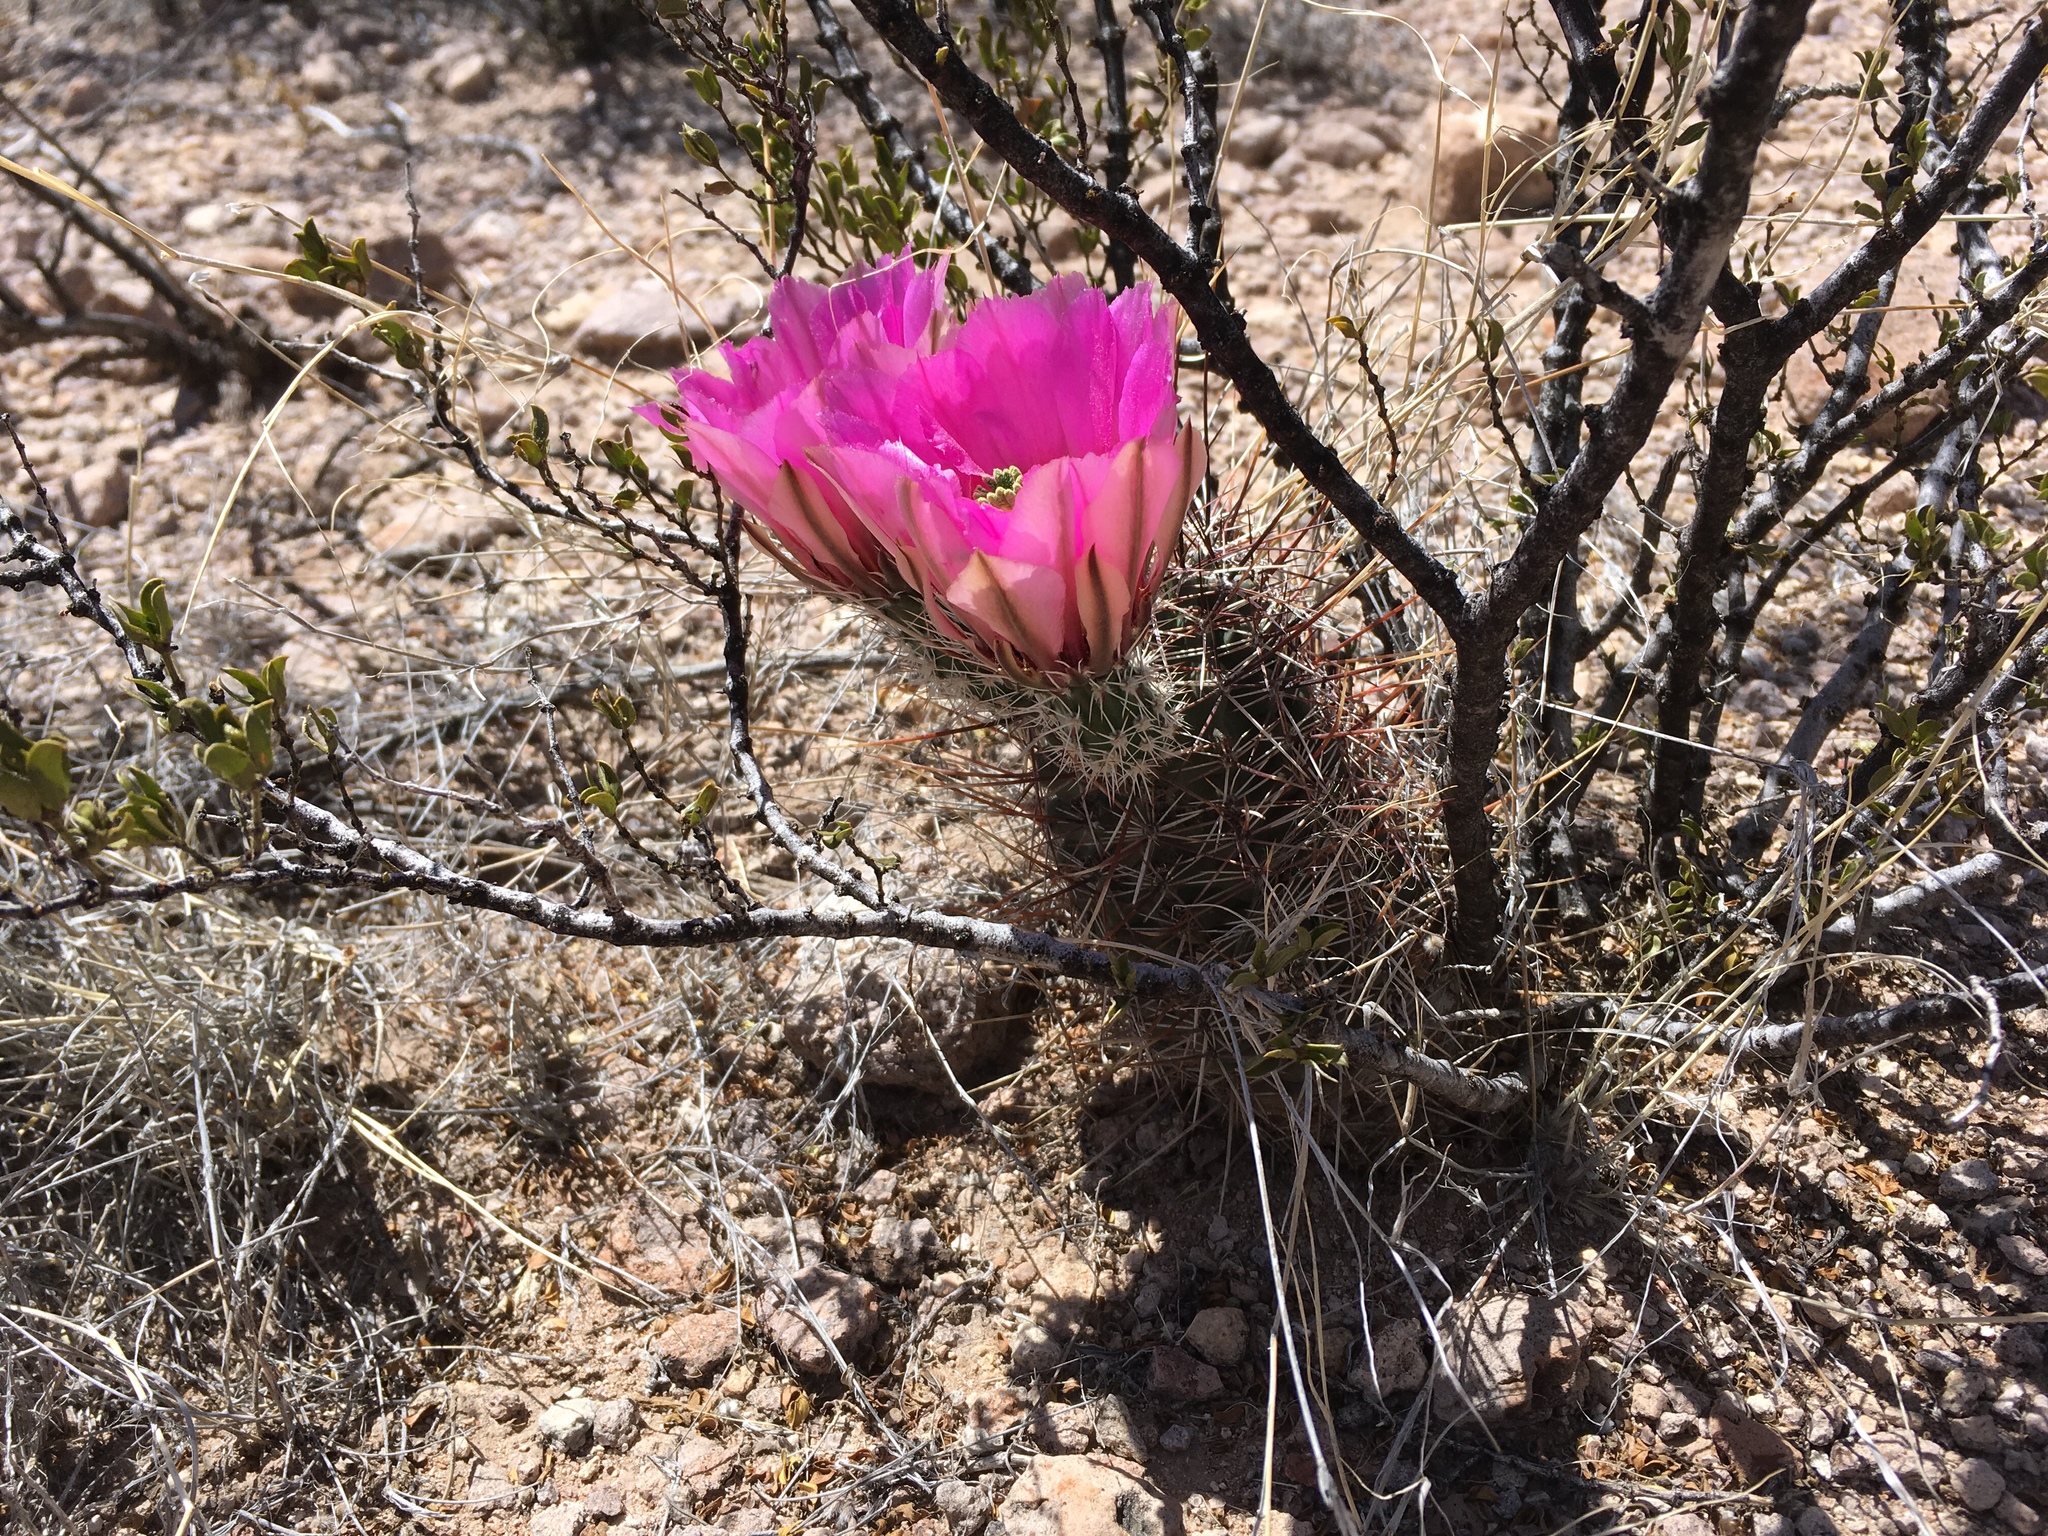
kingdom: Plantae
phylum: Tracheophyta
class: Magnoliopsida
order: Caryophyllales
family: Cactaceae
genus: Echinocereus
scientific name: Echinocereus fendleri
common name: Fendler's hedgehog cactus
